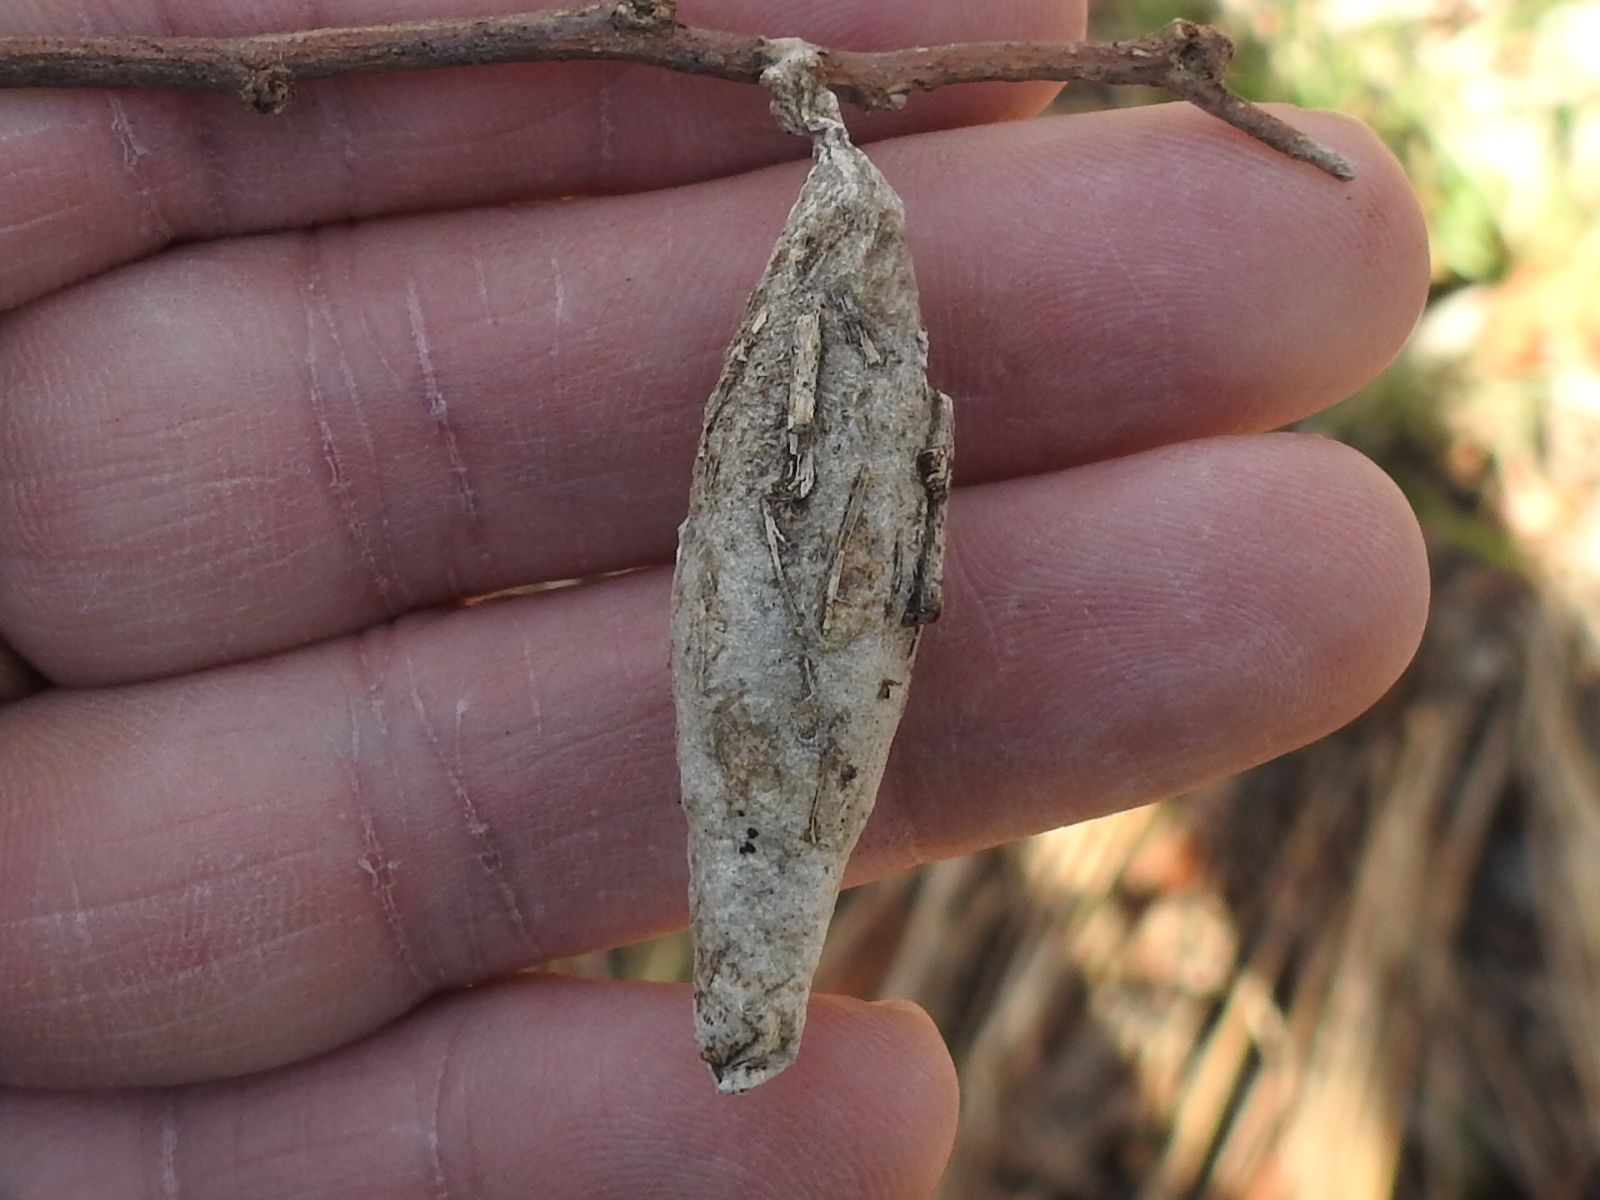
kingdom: Animalia
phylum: Arthropoda
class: Insecta
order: Lepidoptera
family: Psychidae
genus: Thyridopteryx
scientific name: Thyridopteryx ephemeraeformis
